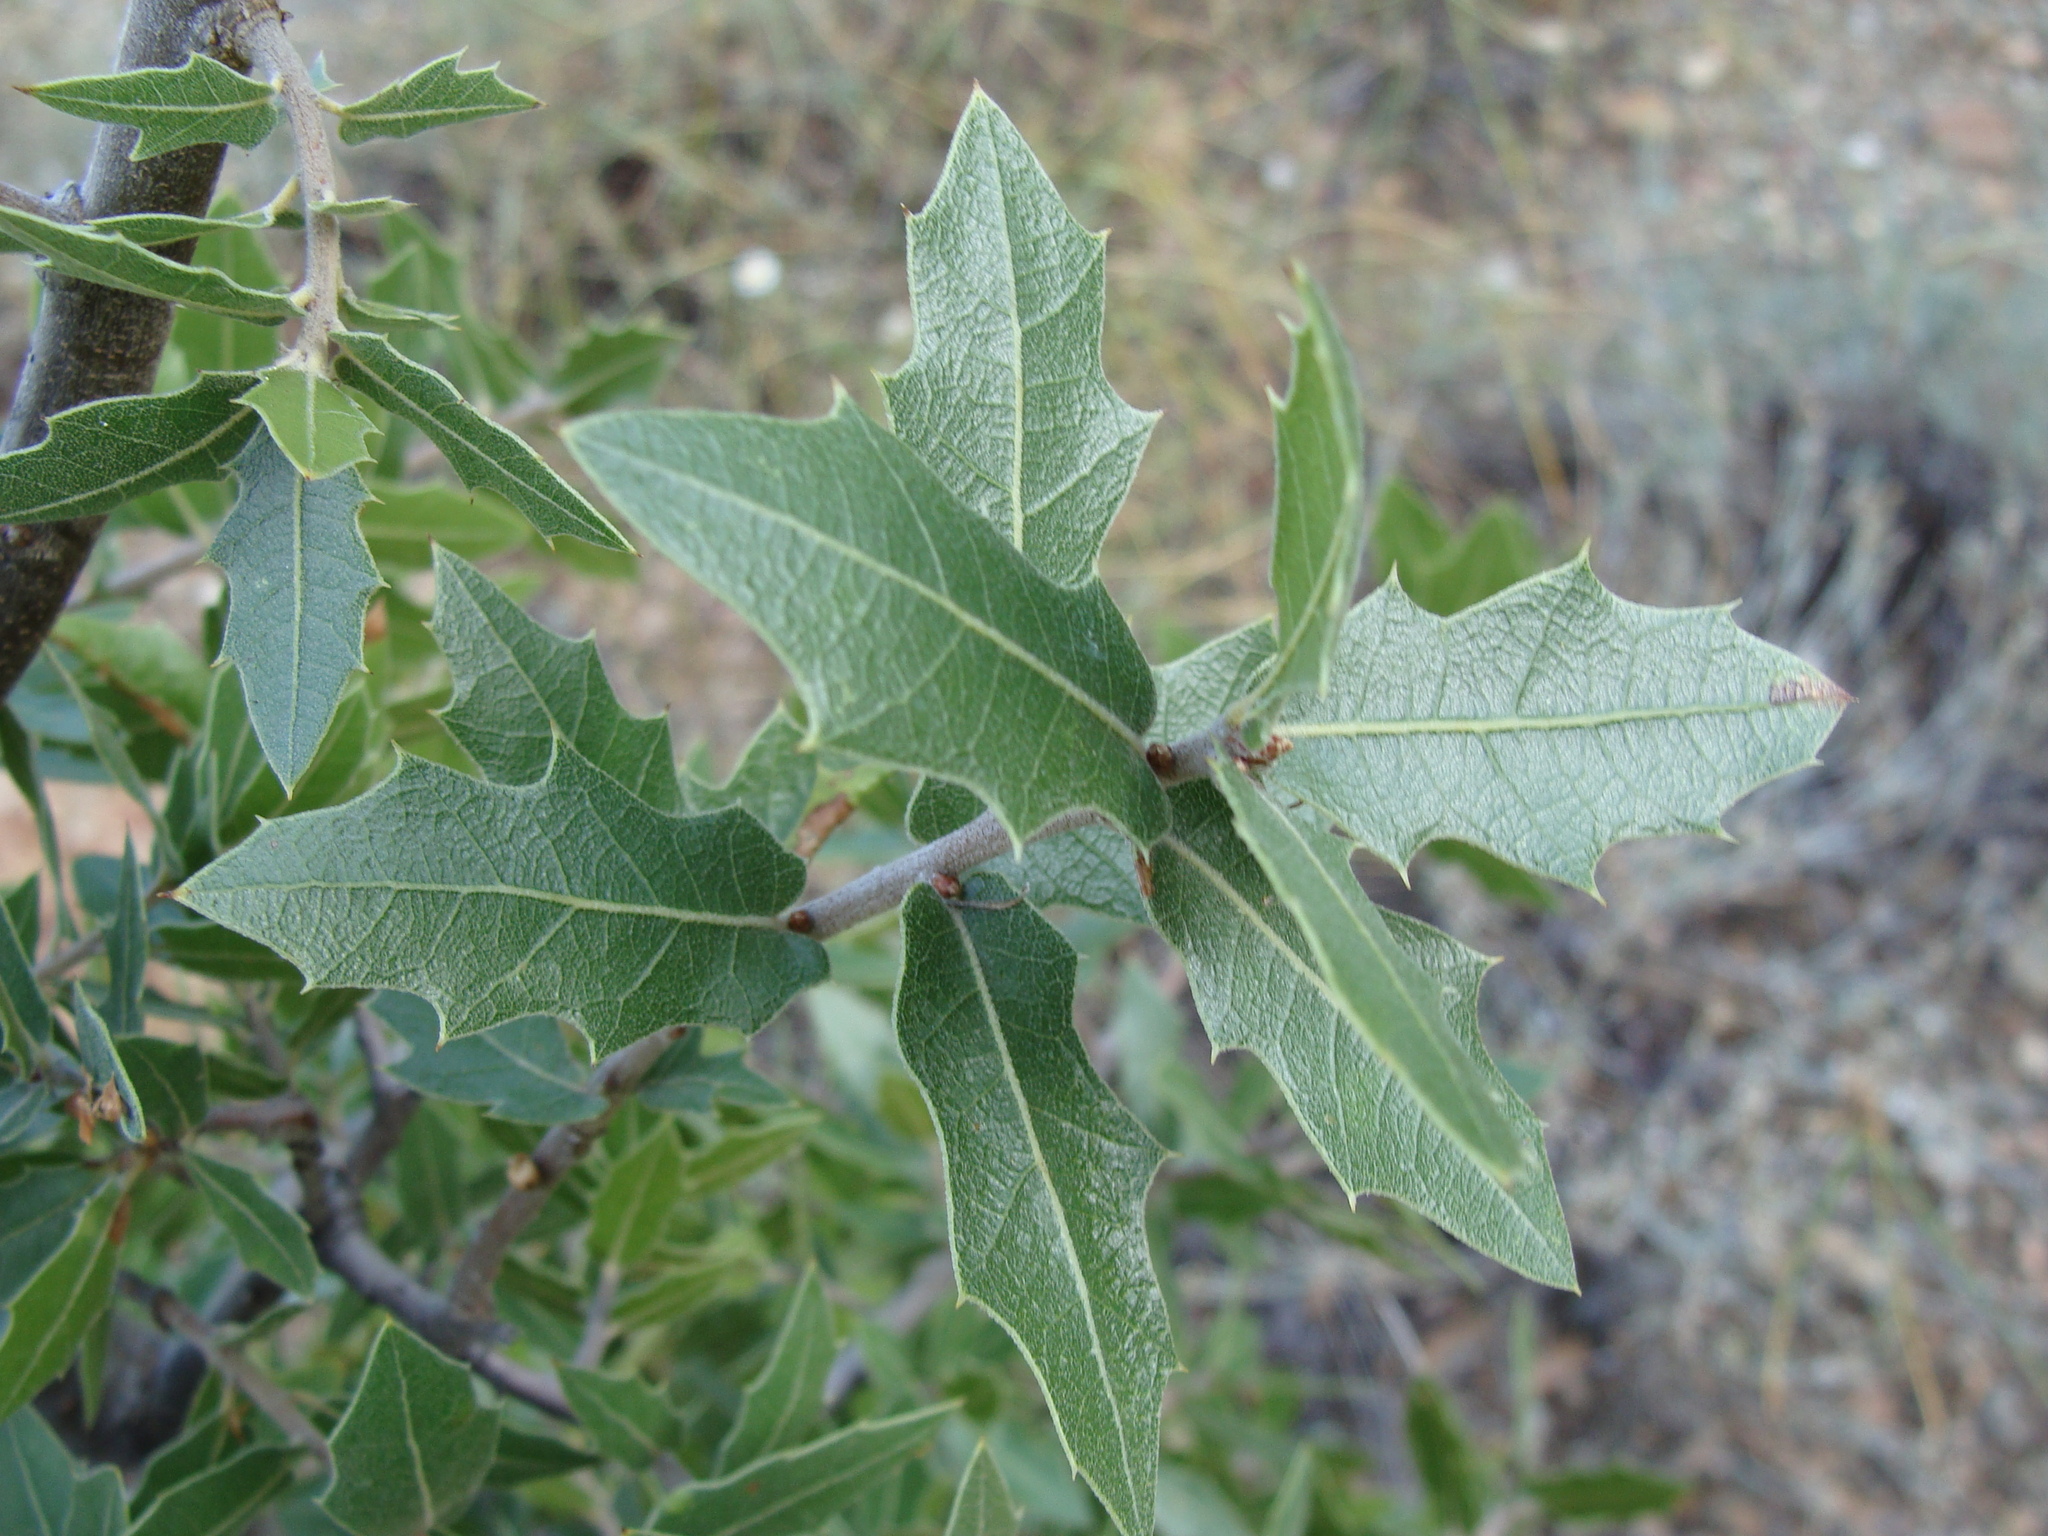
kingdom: Plantae
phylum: Tracheophyta
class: Magnoliopsida
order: Fagales
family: Fagaceae
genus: Quercus
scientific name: Quercus emoryi
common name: Emory oak
